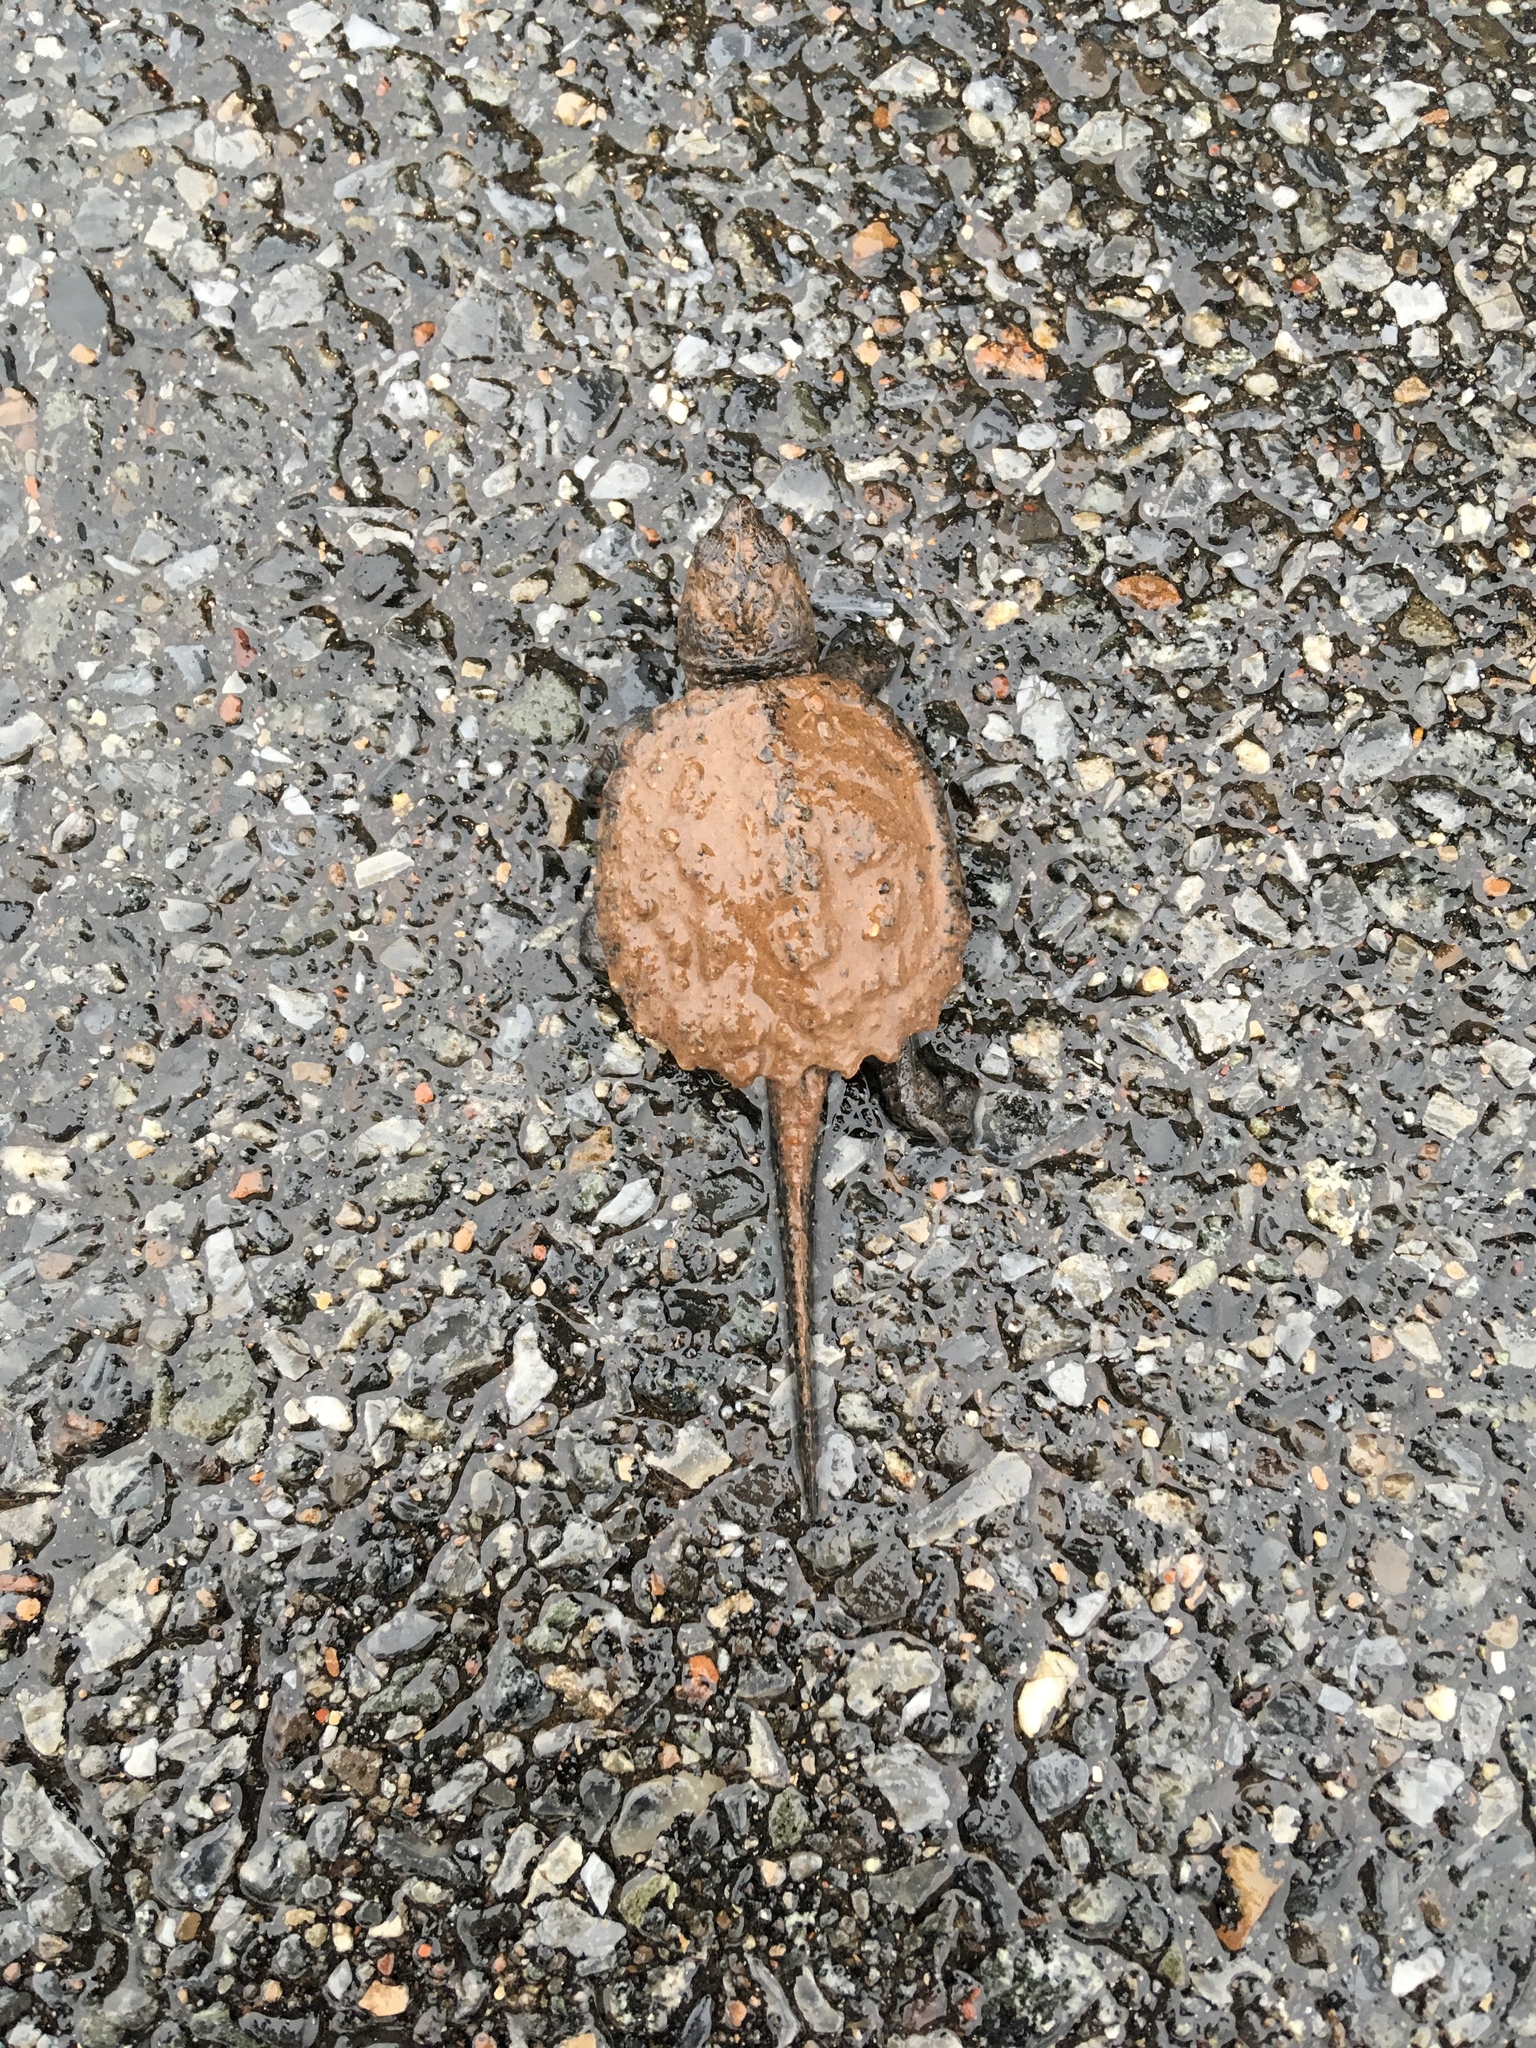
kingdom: Animalia
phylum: Chordata
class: Testudines
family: Chelydridae
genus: Chelydra
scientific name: Chelydra serpentina
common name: Common snapping turtle
